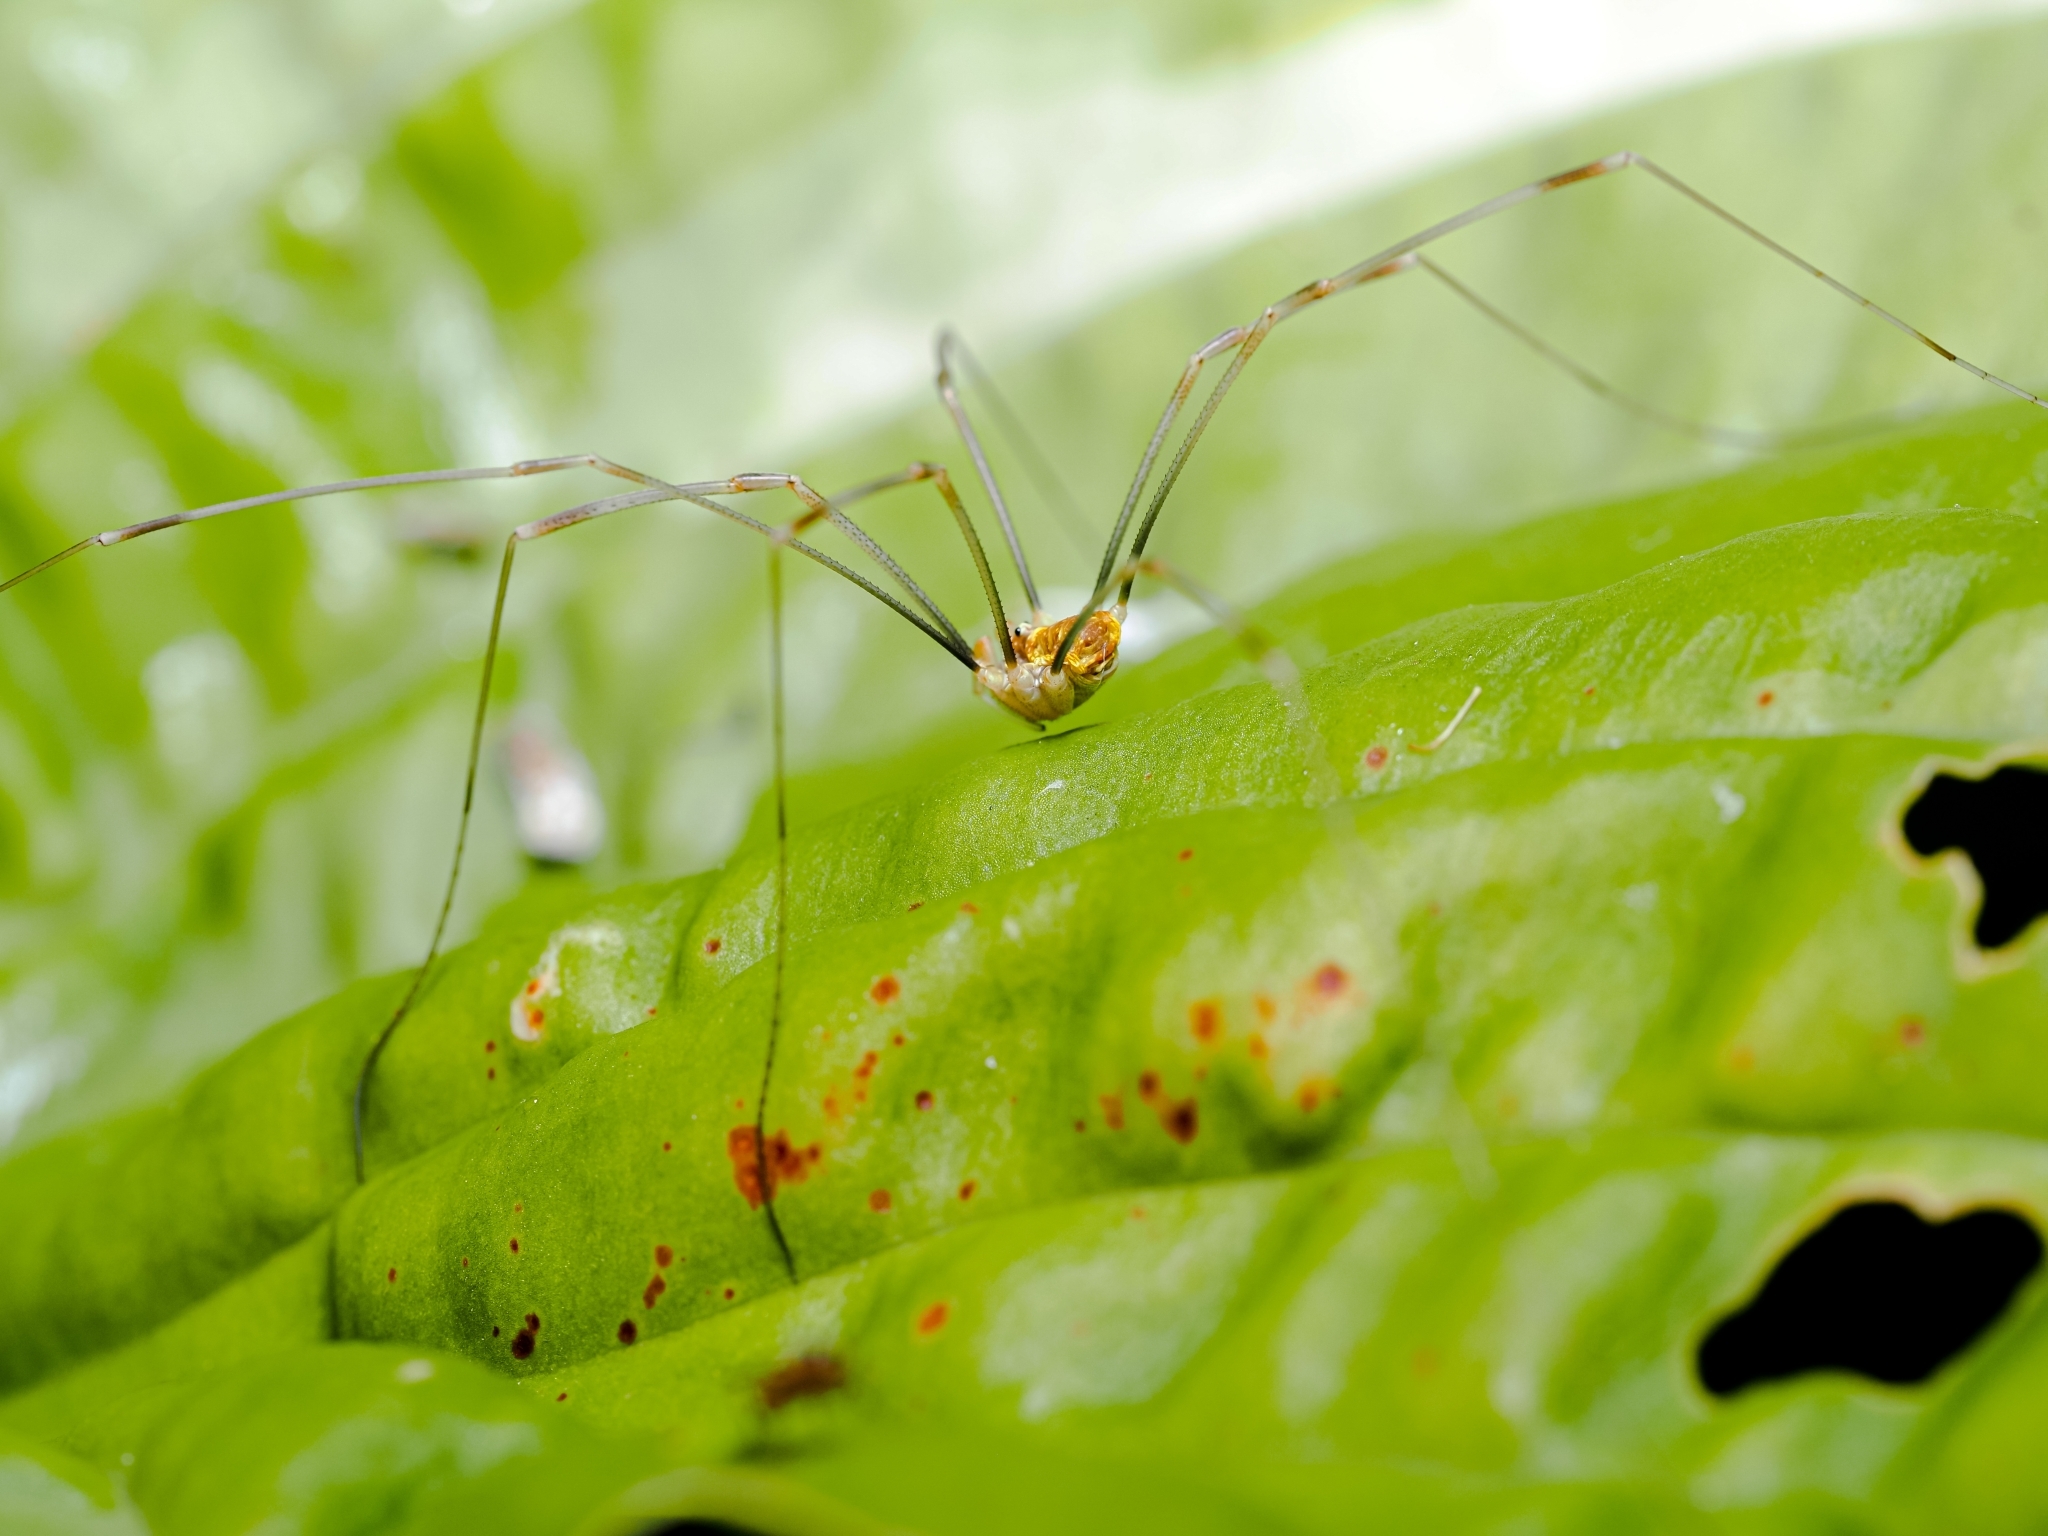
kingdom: Animalia
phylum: Arthropoda
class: Arachnida
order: Opiliones
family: Phalangiidae
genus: Opilio
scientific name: Opilio canestrinii
